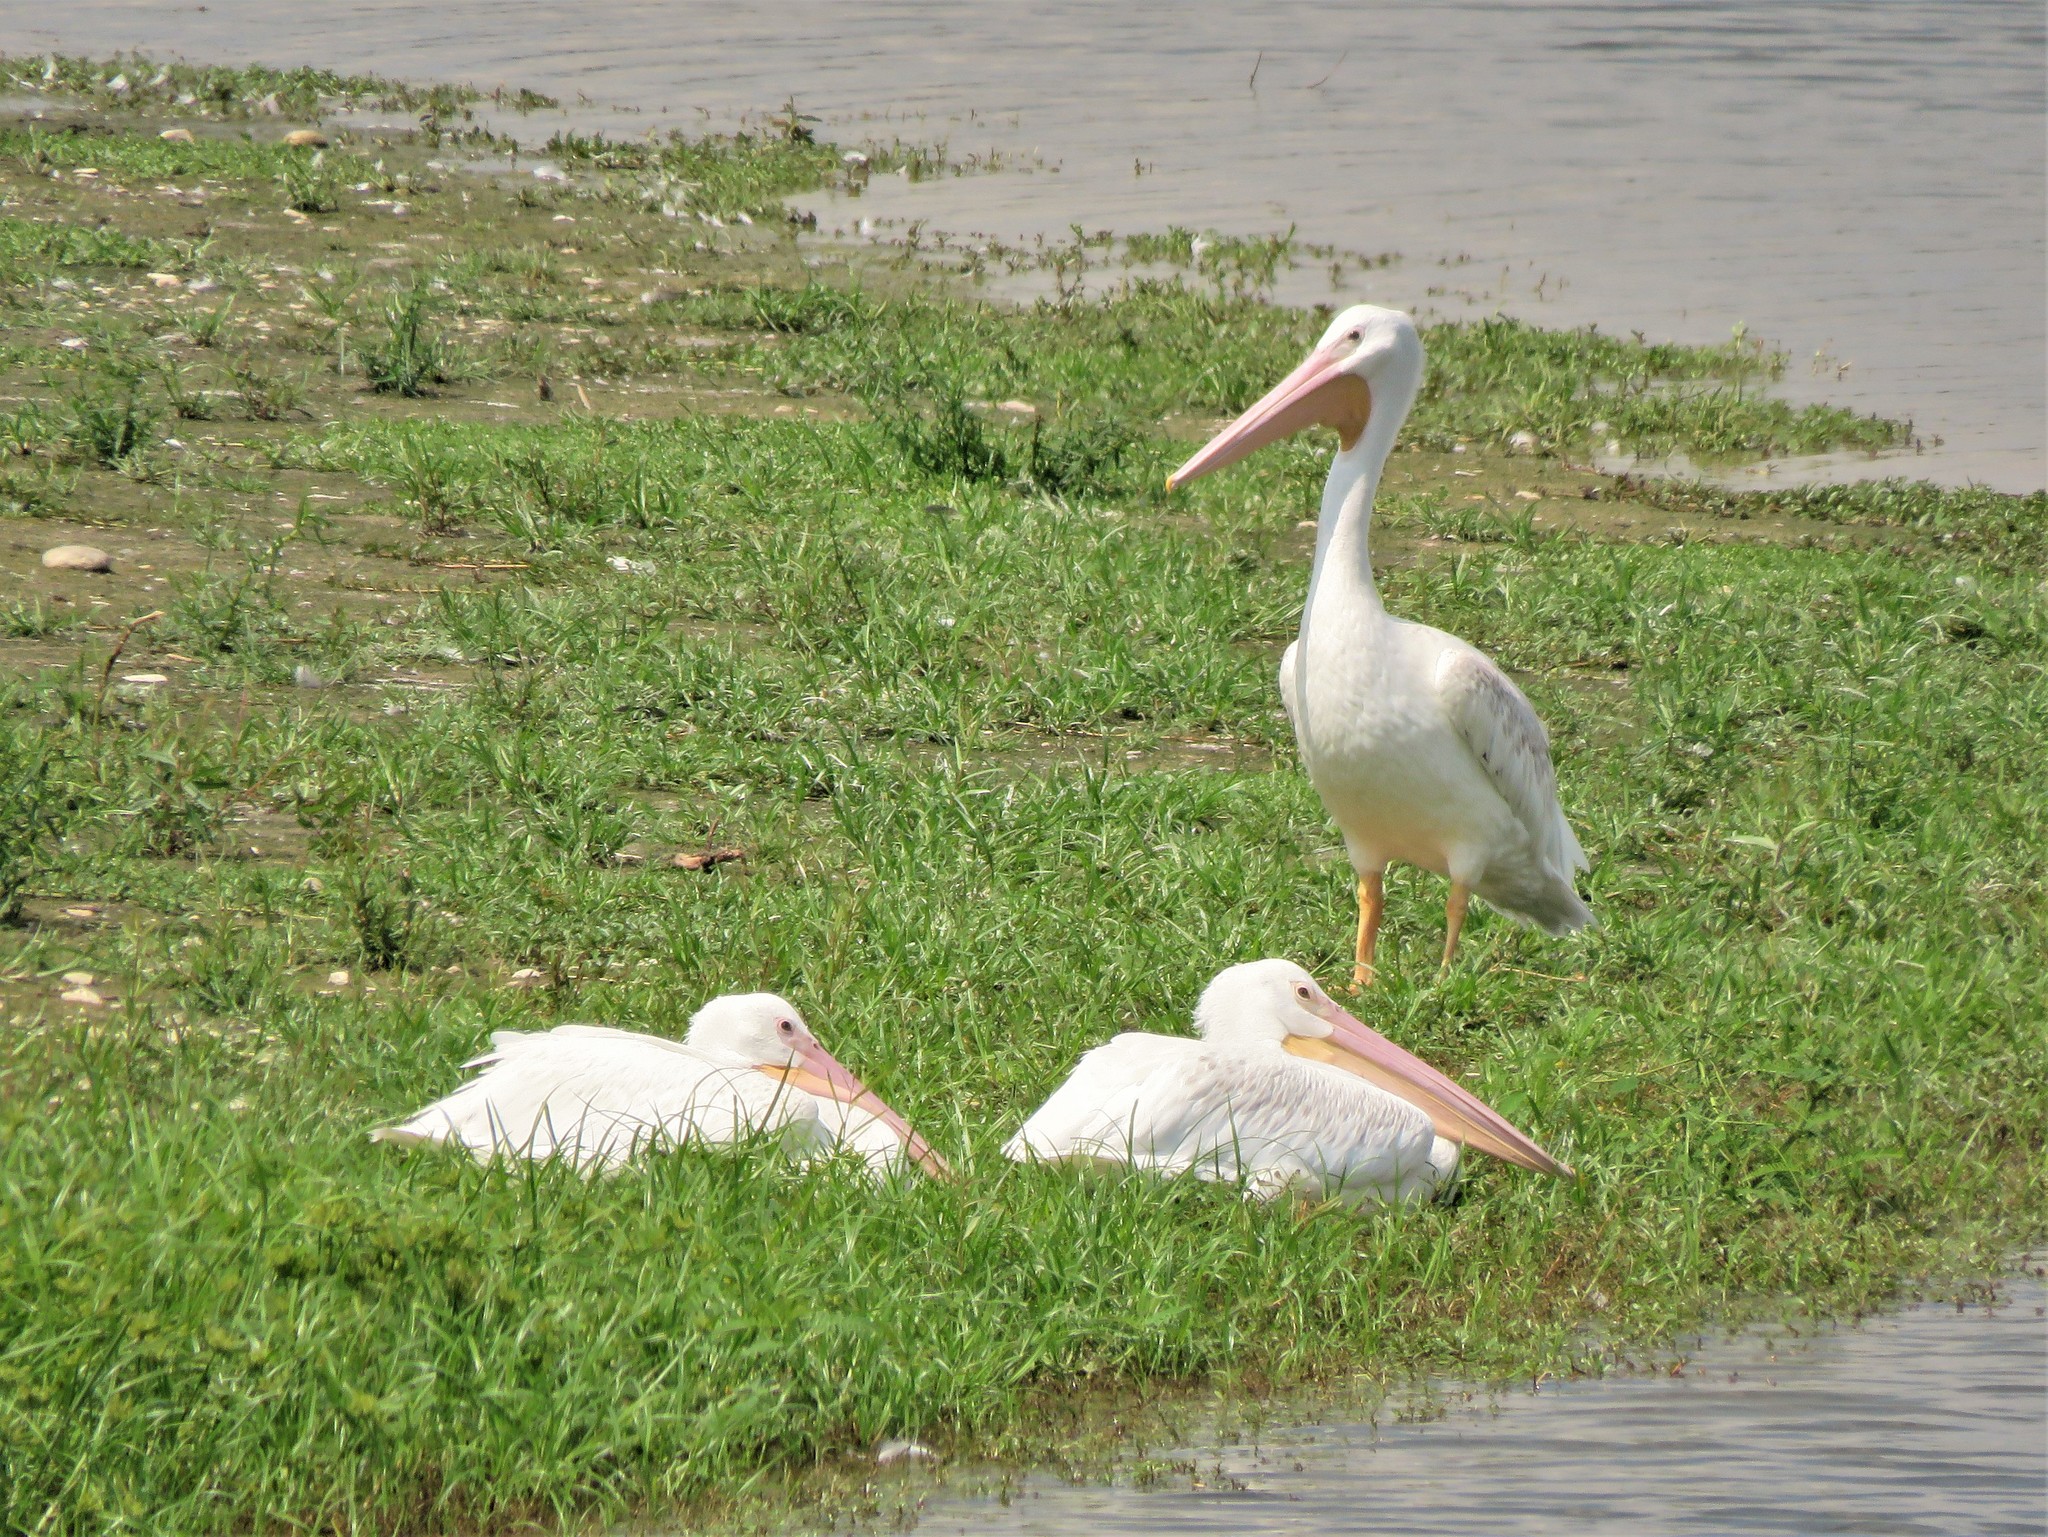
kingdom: Animalia
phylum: Chordata
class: Aves
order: Pelecaniformes
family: Pelecanidae
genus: Pelecanus
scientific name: Pelecanus erythrorhynchos
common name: American white pelican
